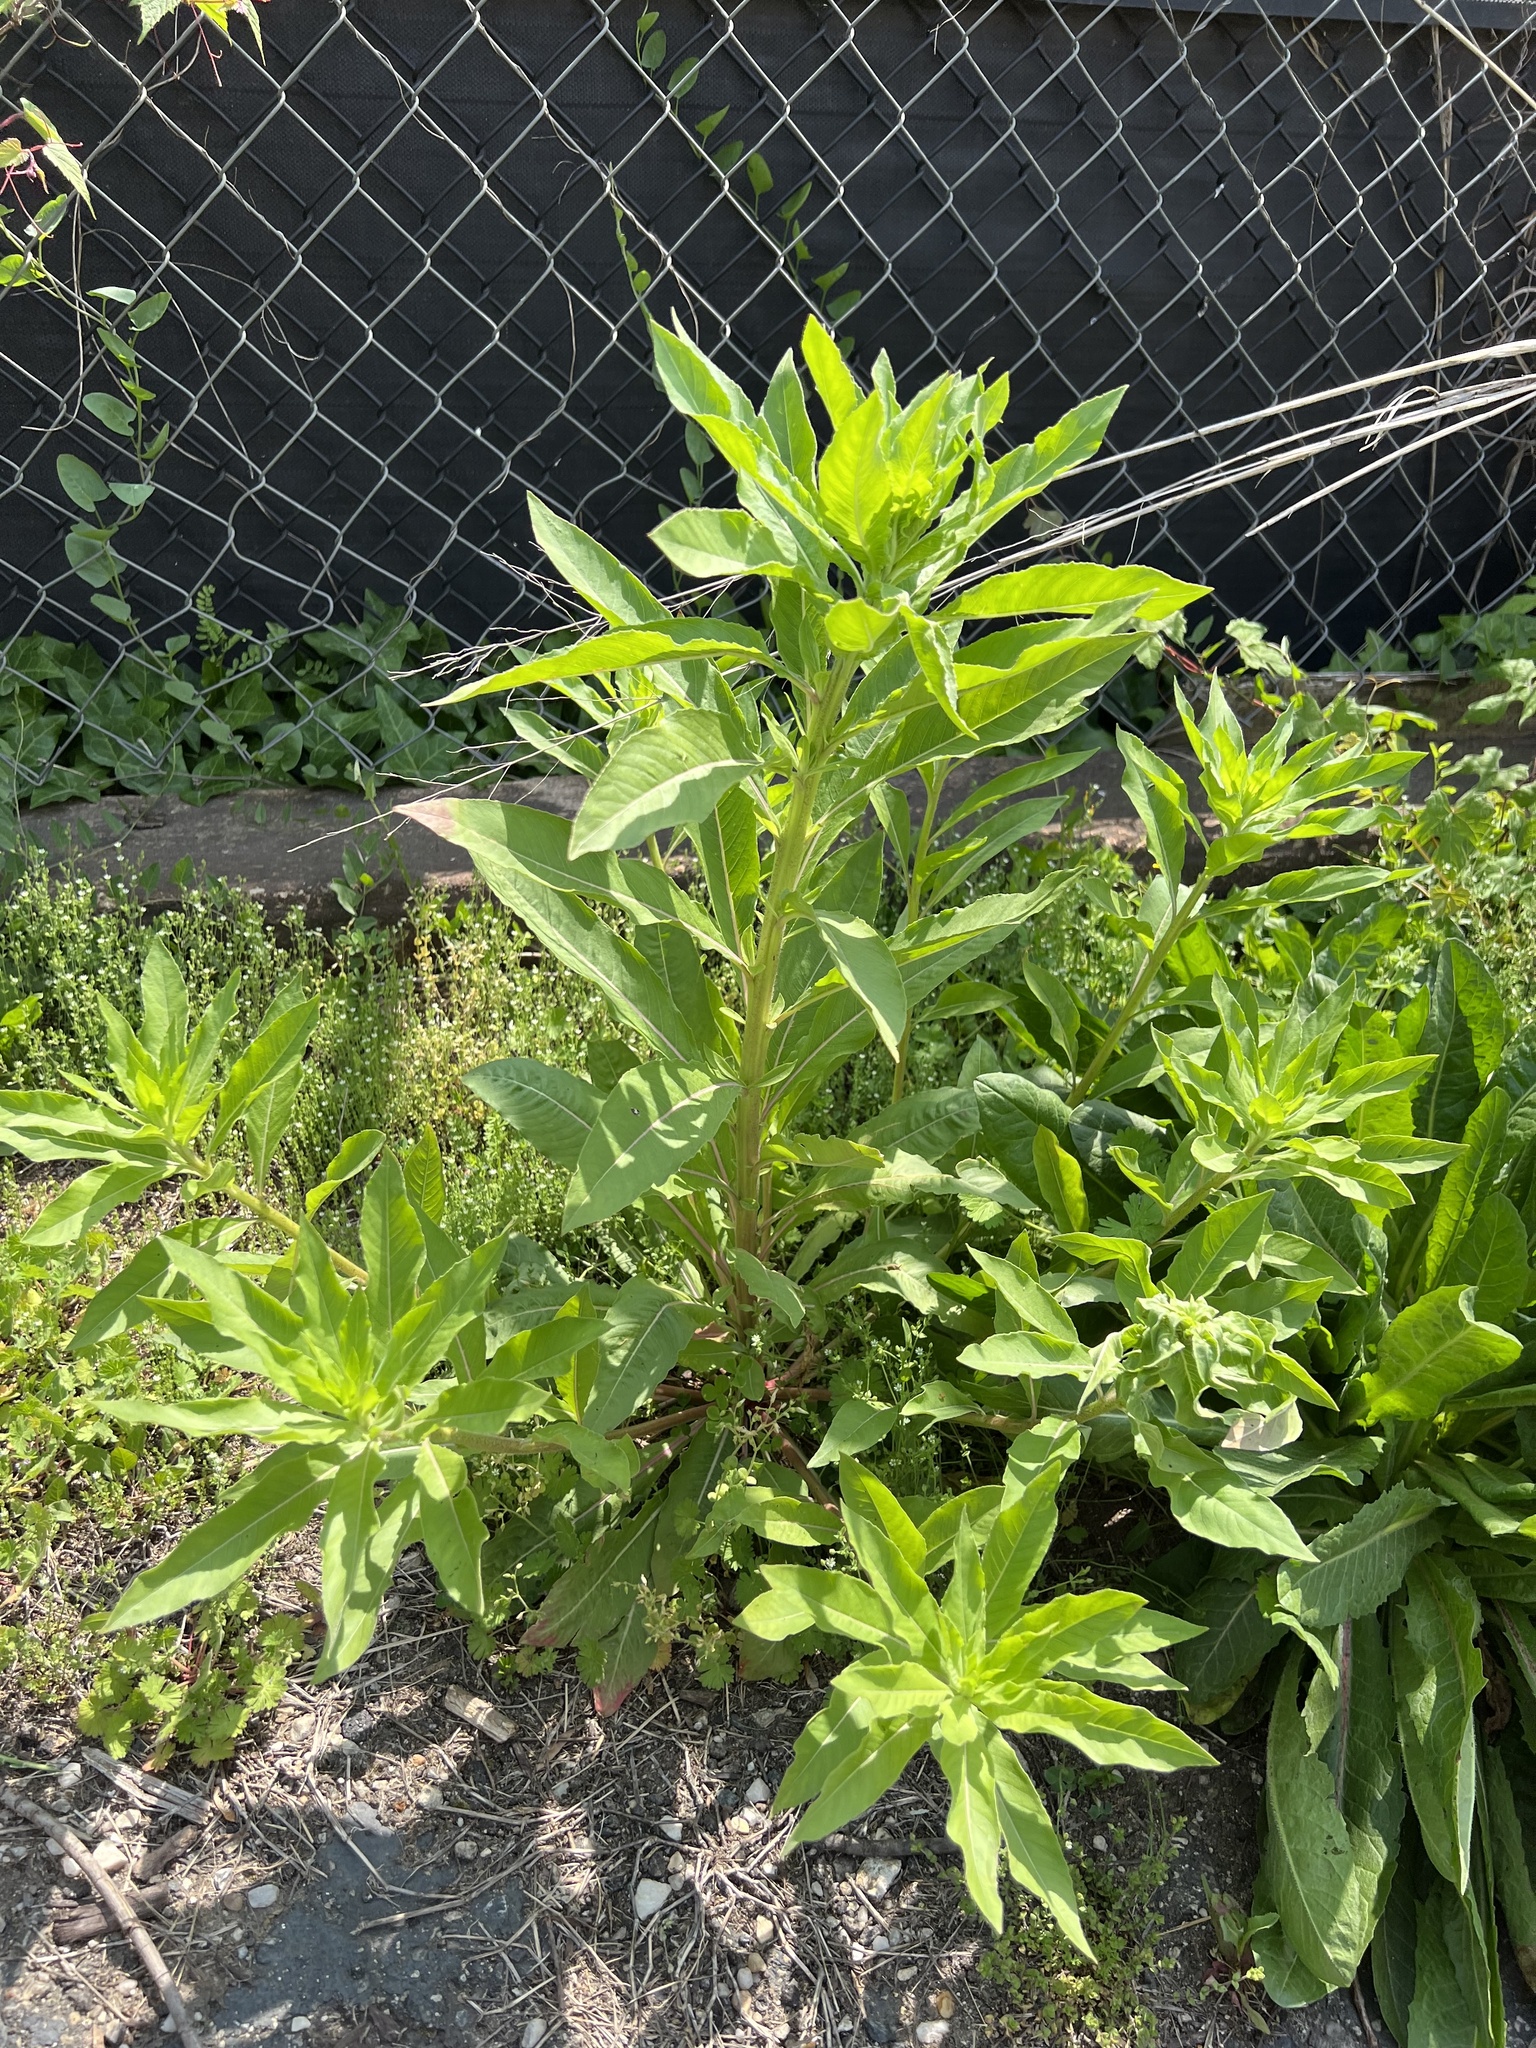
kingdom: Plantae
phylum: Tracheophyta
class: Magnoliopsida
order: Myrtales
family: Onagraceae
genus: Oenothera
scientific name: Oenothera biennis
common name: Common evening-primrose
